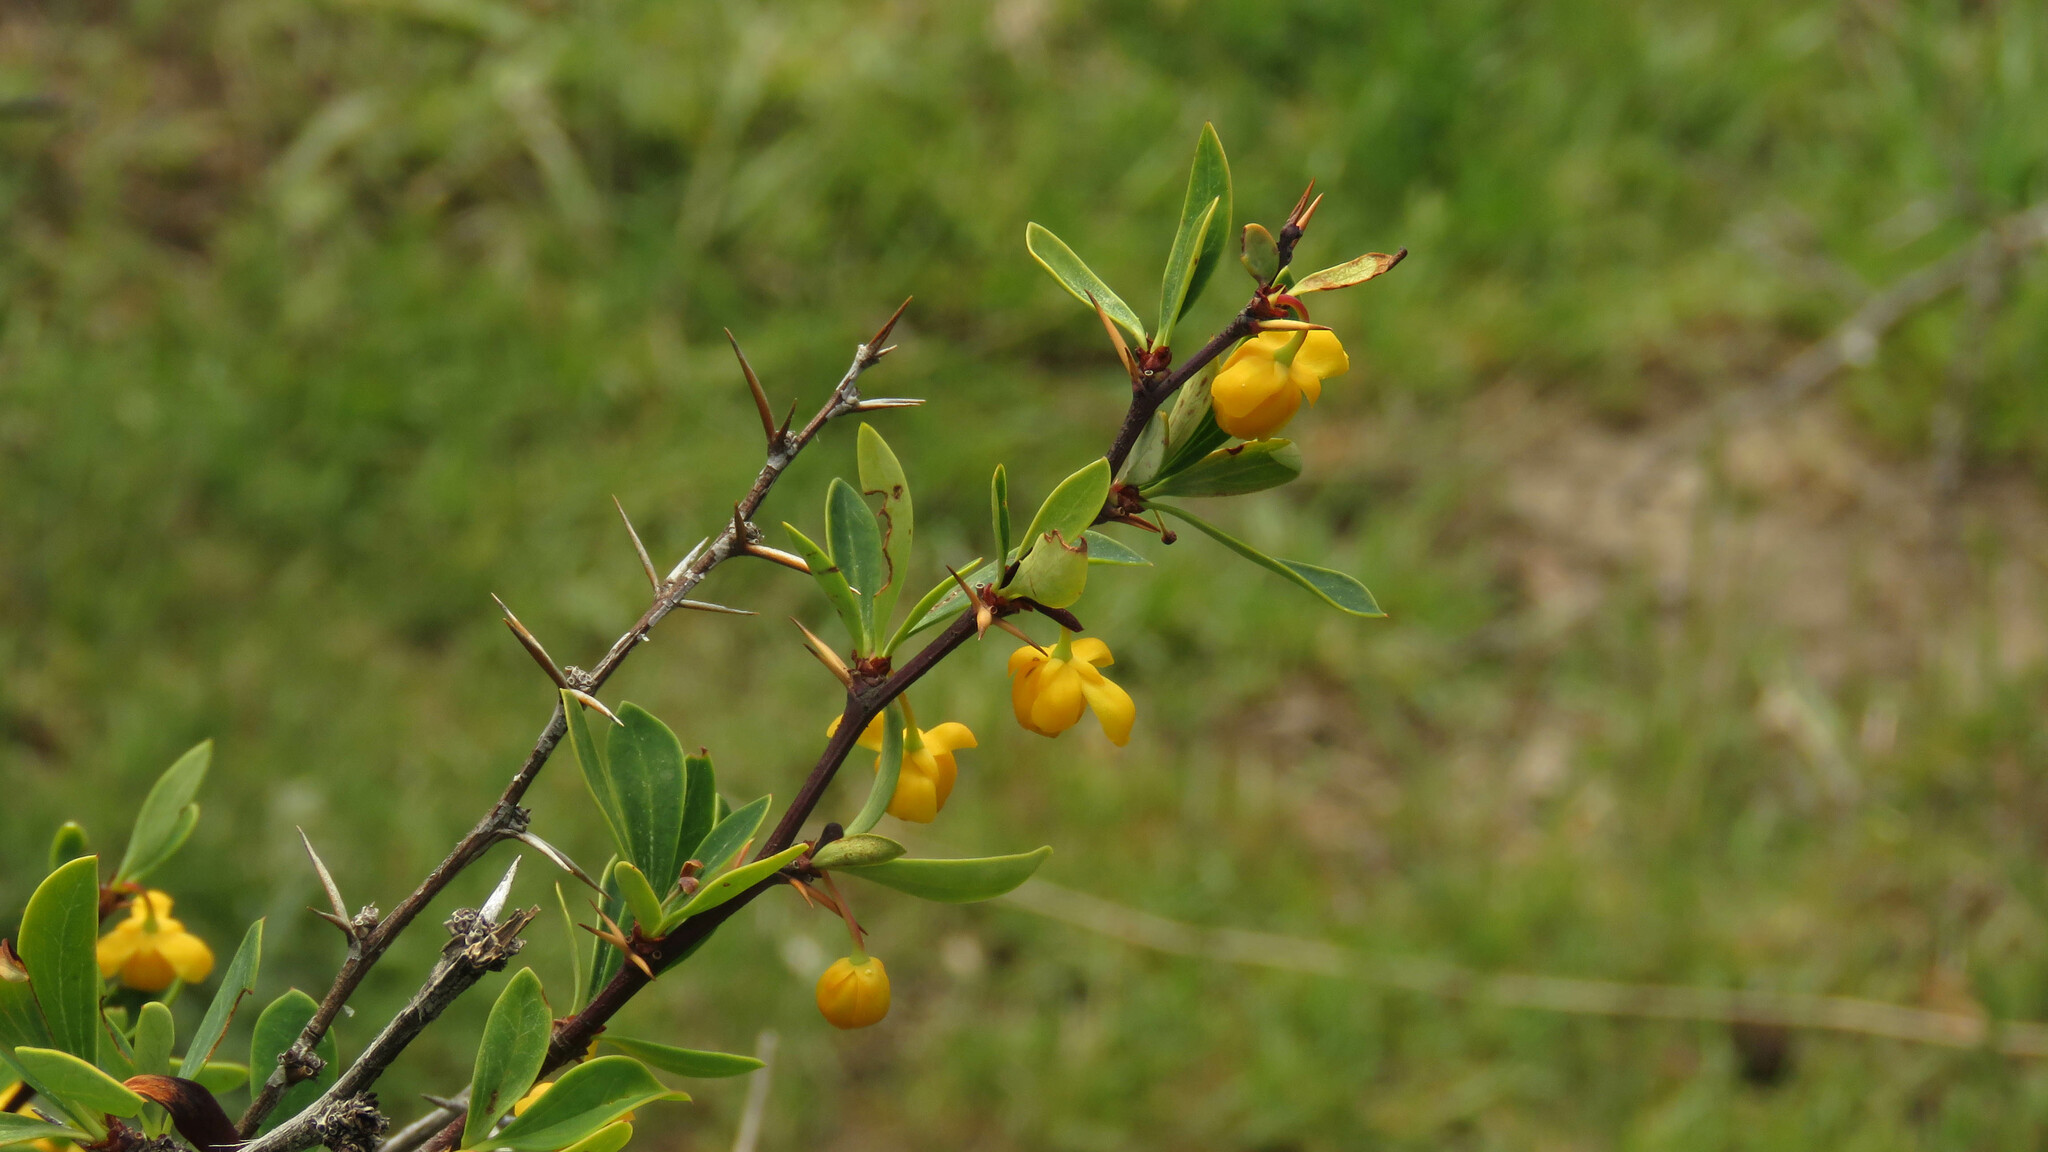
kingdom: Plantae
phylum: Tracheophyta
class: Magnoliopsida
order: Ranunculales
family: Berberidaceae
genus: Berberis
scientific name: Berberis microphylla
